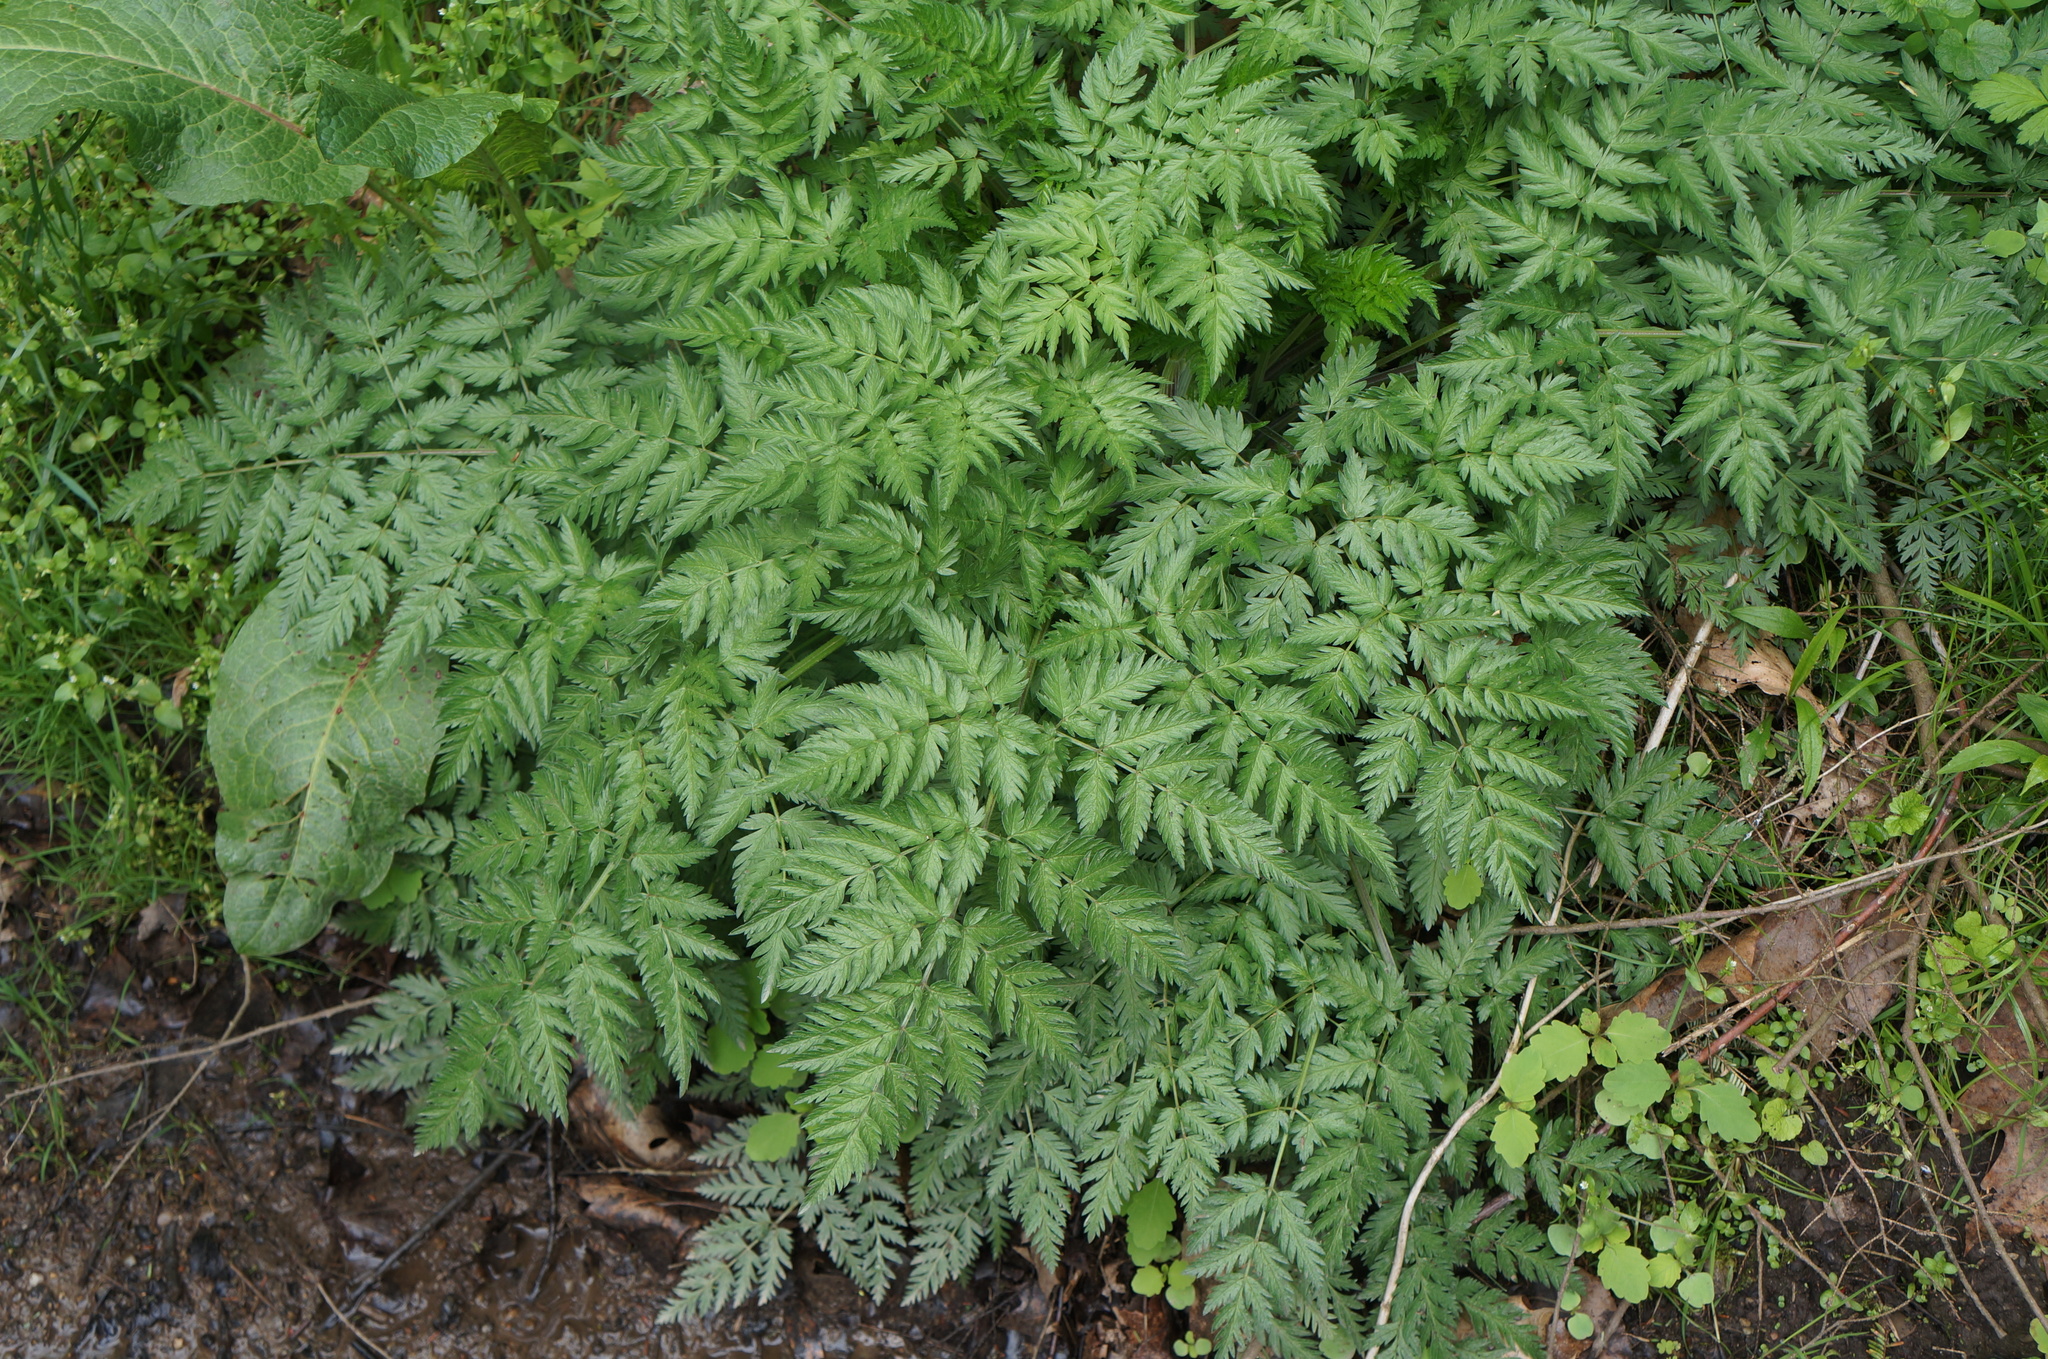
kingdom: Plantae
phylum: Tracheophyta
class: Magnoliopsida
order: Apiales
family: Apiaceae
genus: Conium
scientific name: Conium maculatum
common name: Hemlock
